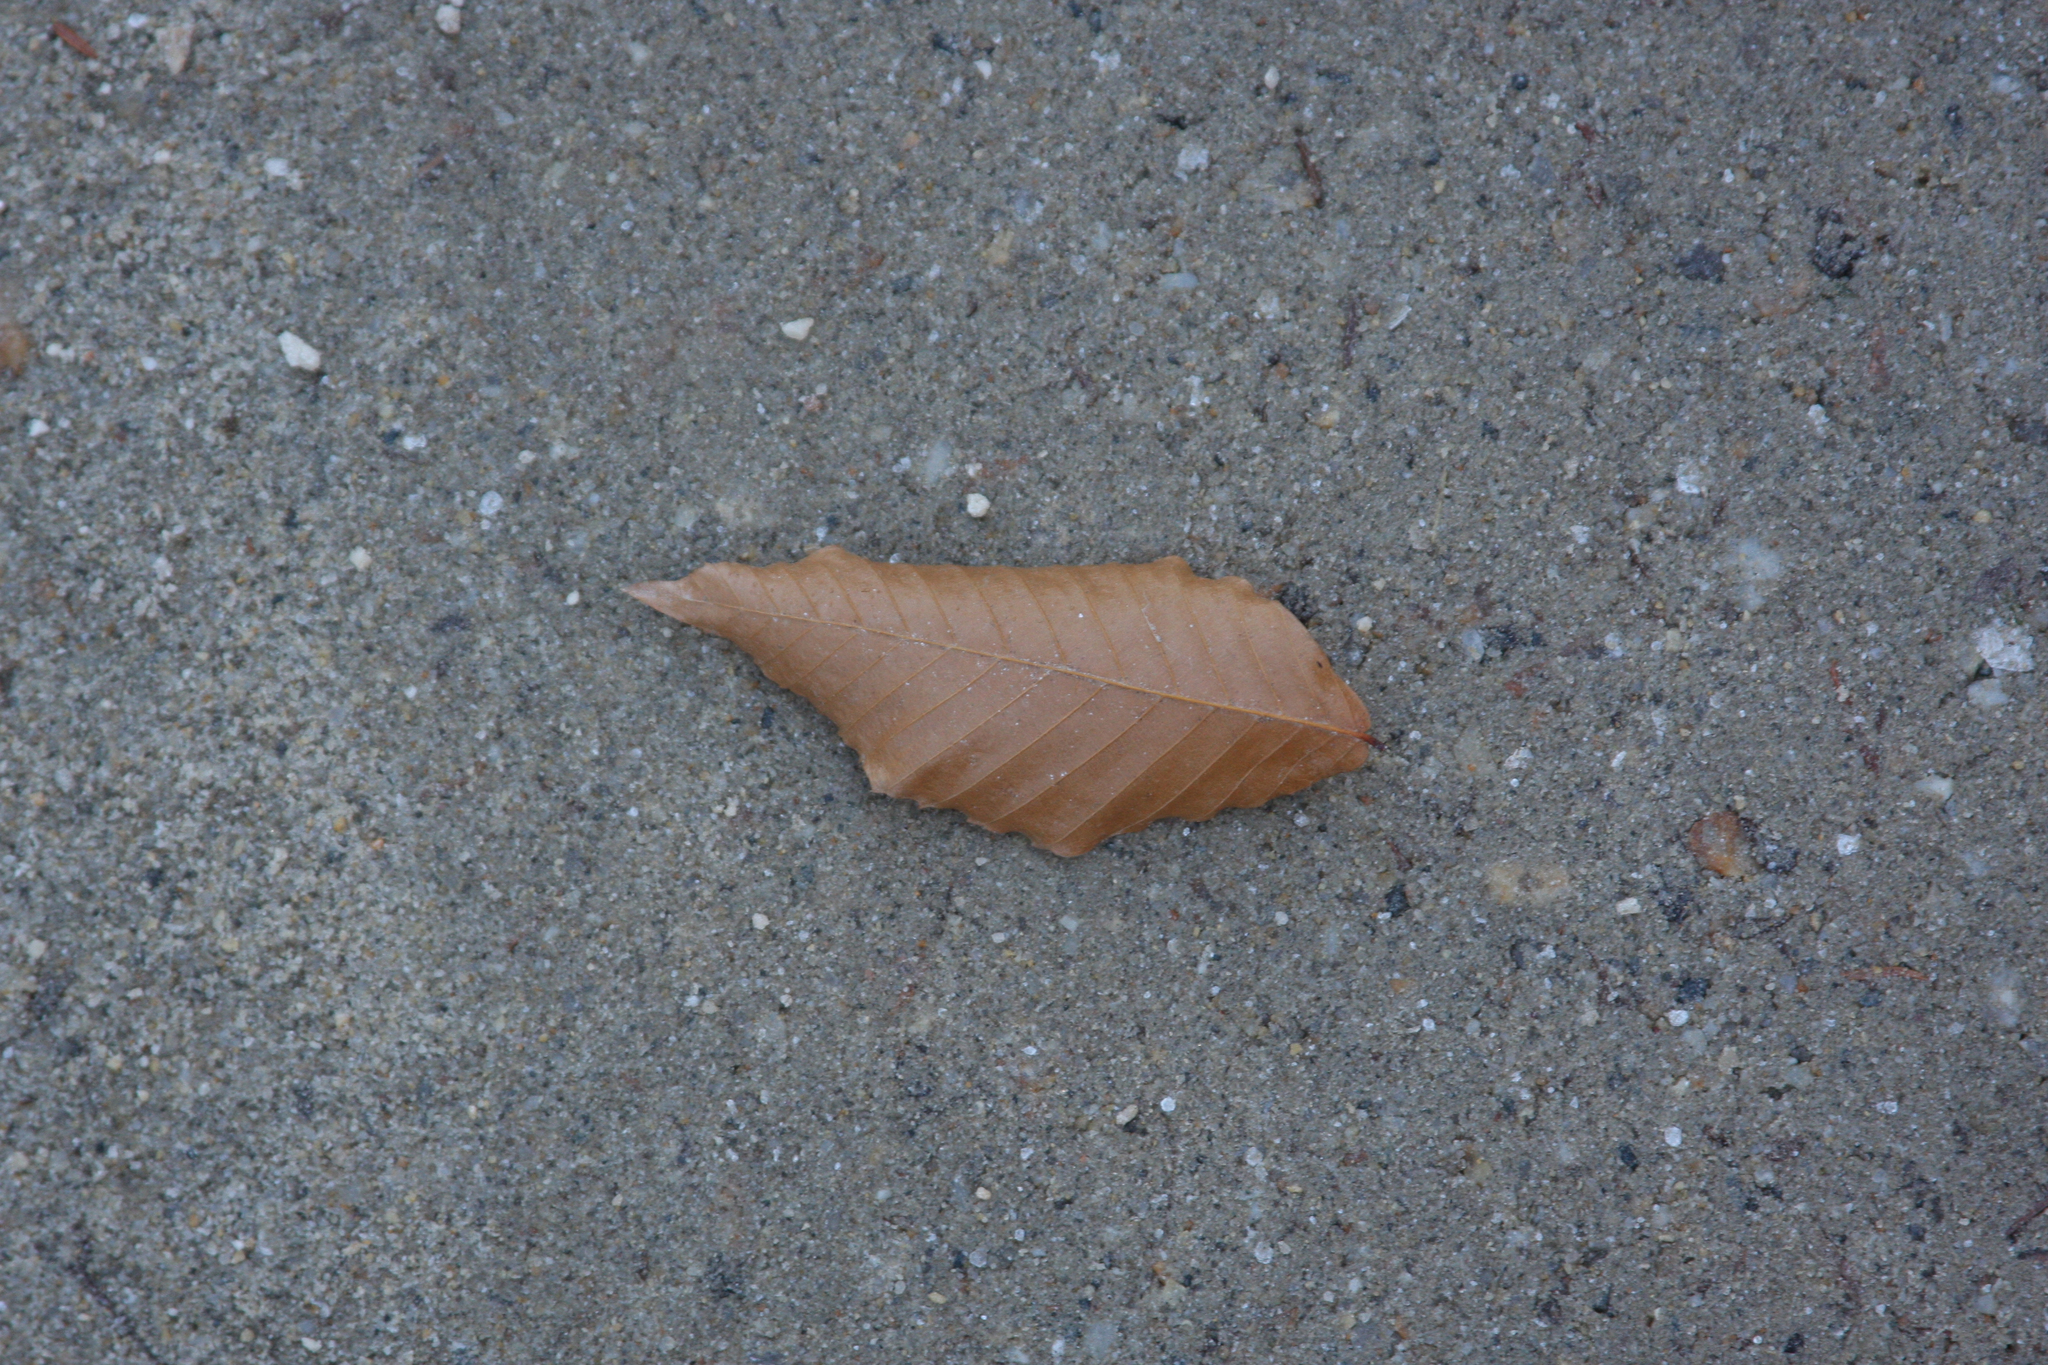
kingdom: Plantae
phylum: Tracheophyta
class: Magnoliopsida
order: Fagales
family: Fagaceae
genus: Fagus
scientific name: Fagus grandifolia
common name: American beech
